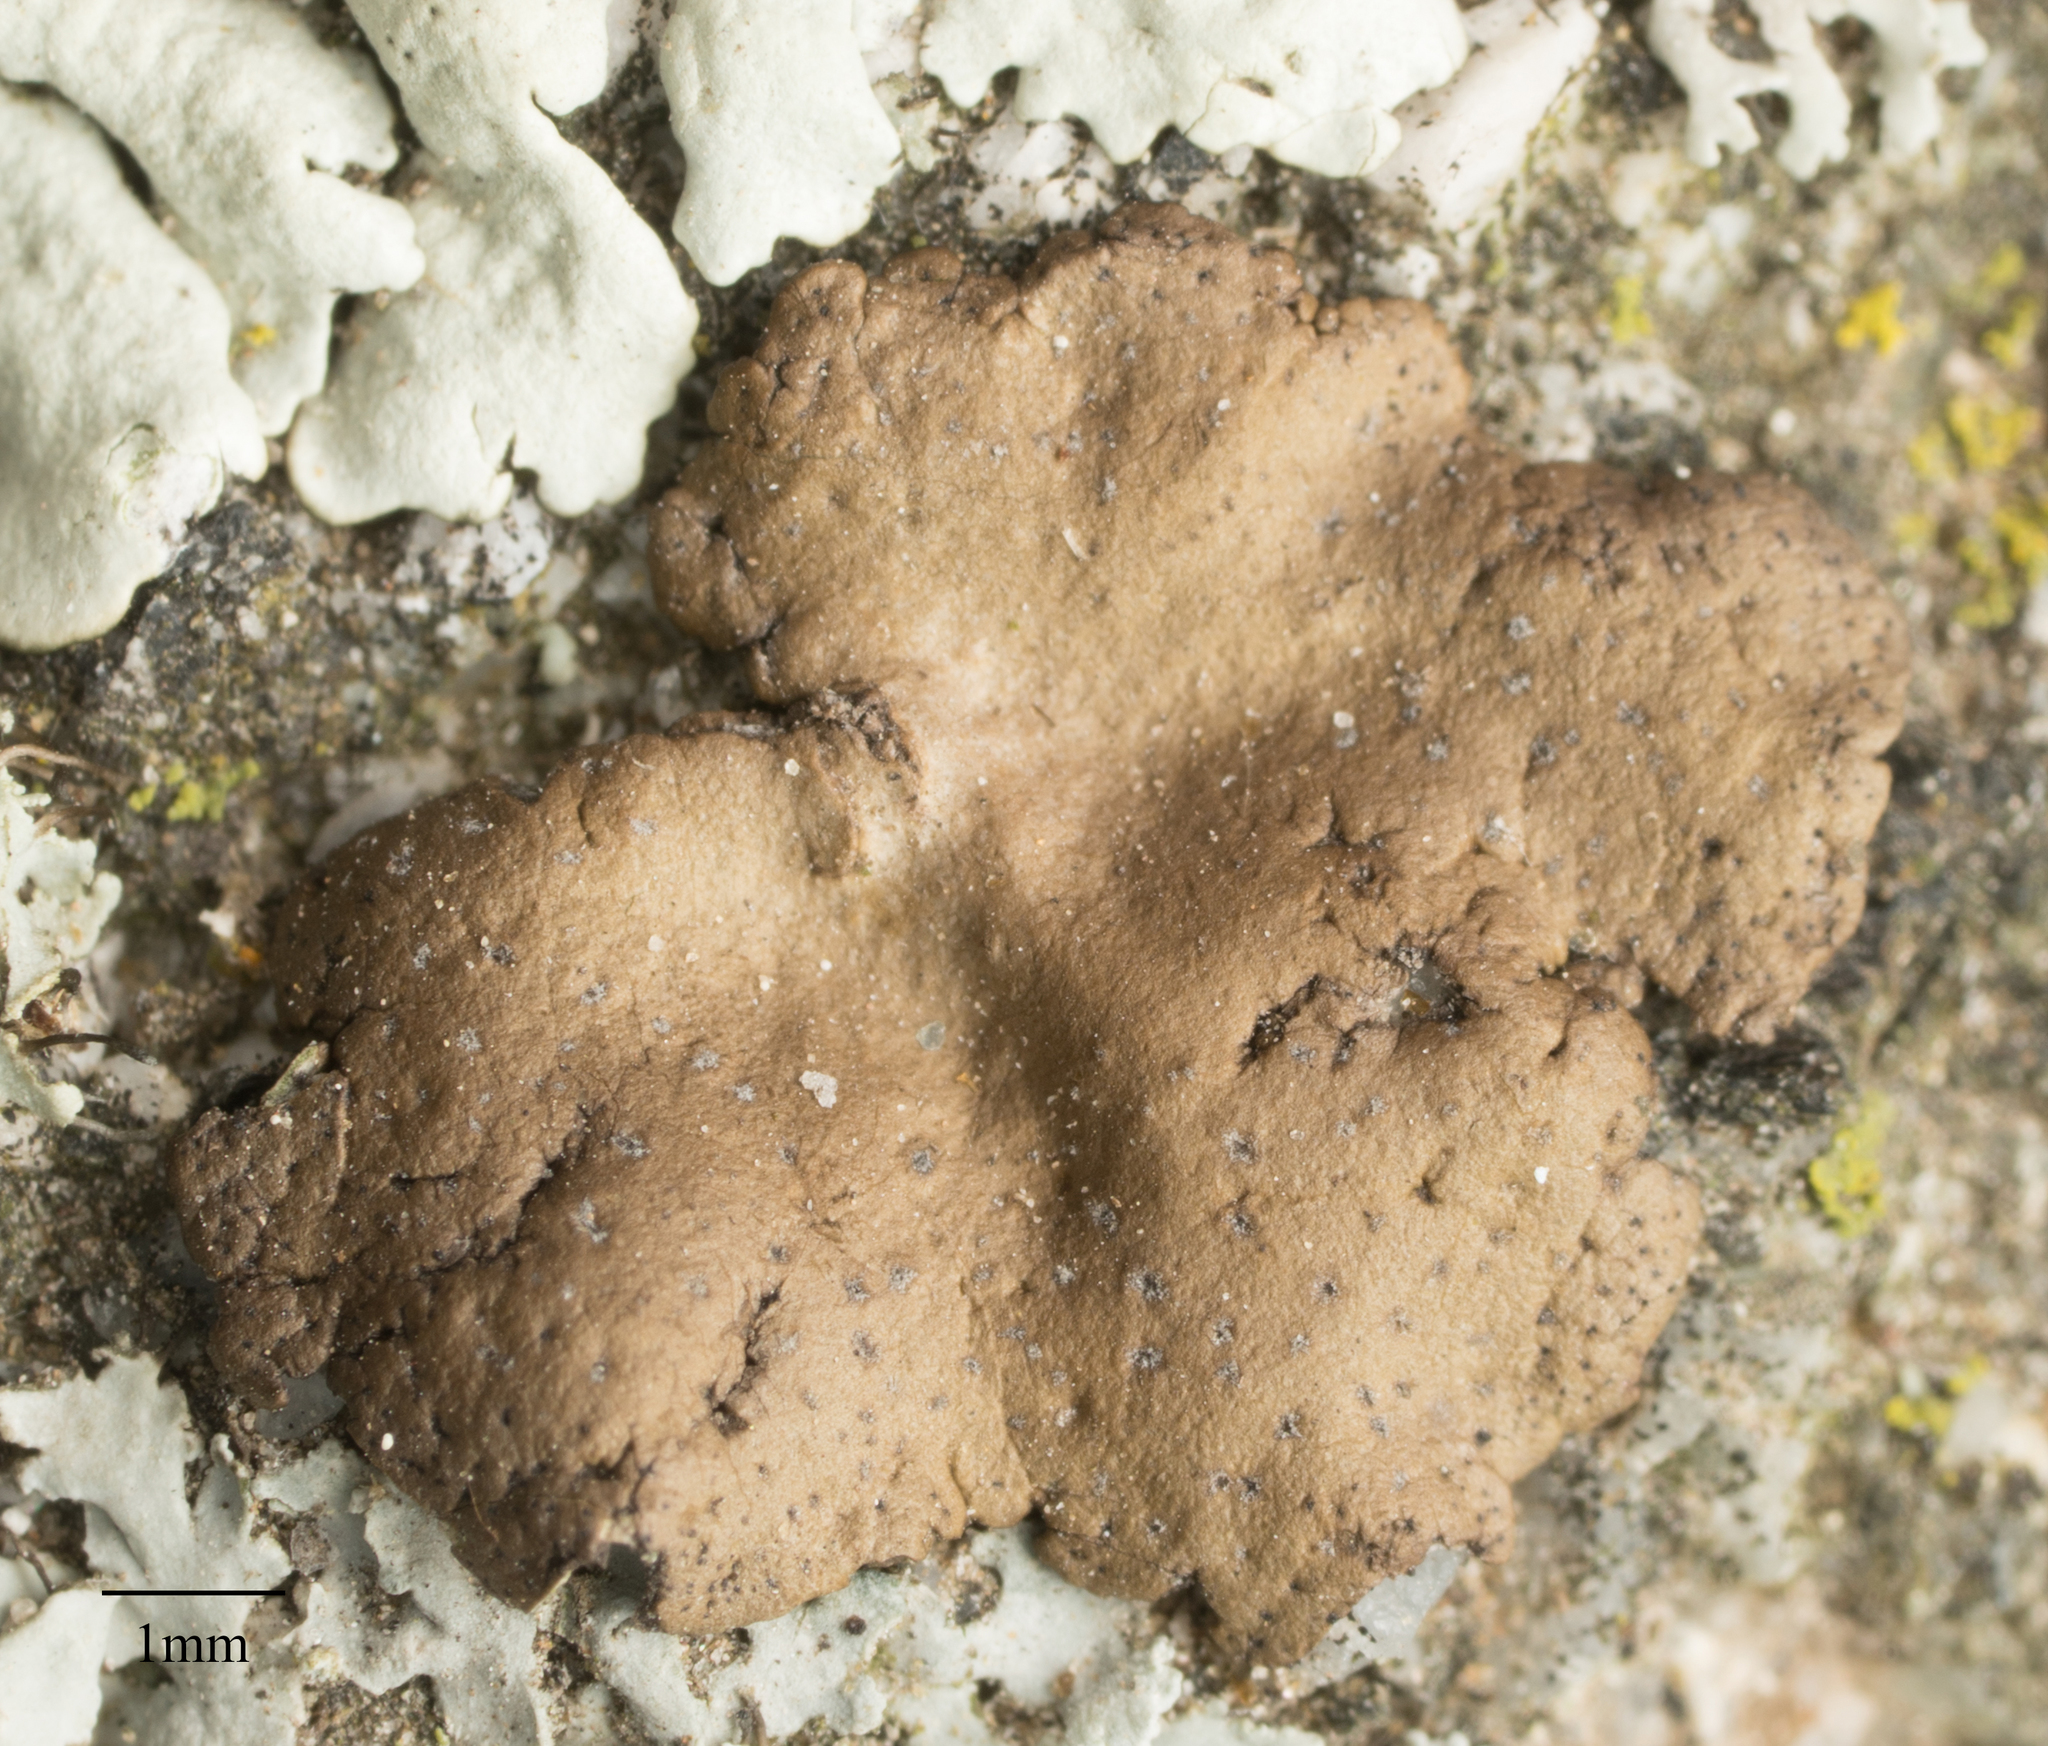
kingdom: Fungi
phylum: Ascomycota
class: Lecanoromycetes
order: Umbilicariales
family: Umbilicariaceae
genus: Umbilicaria
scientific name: Umbilicaria phaea
